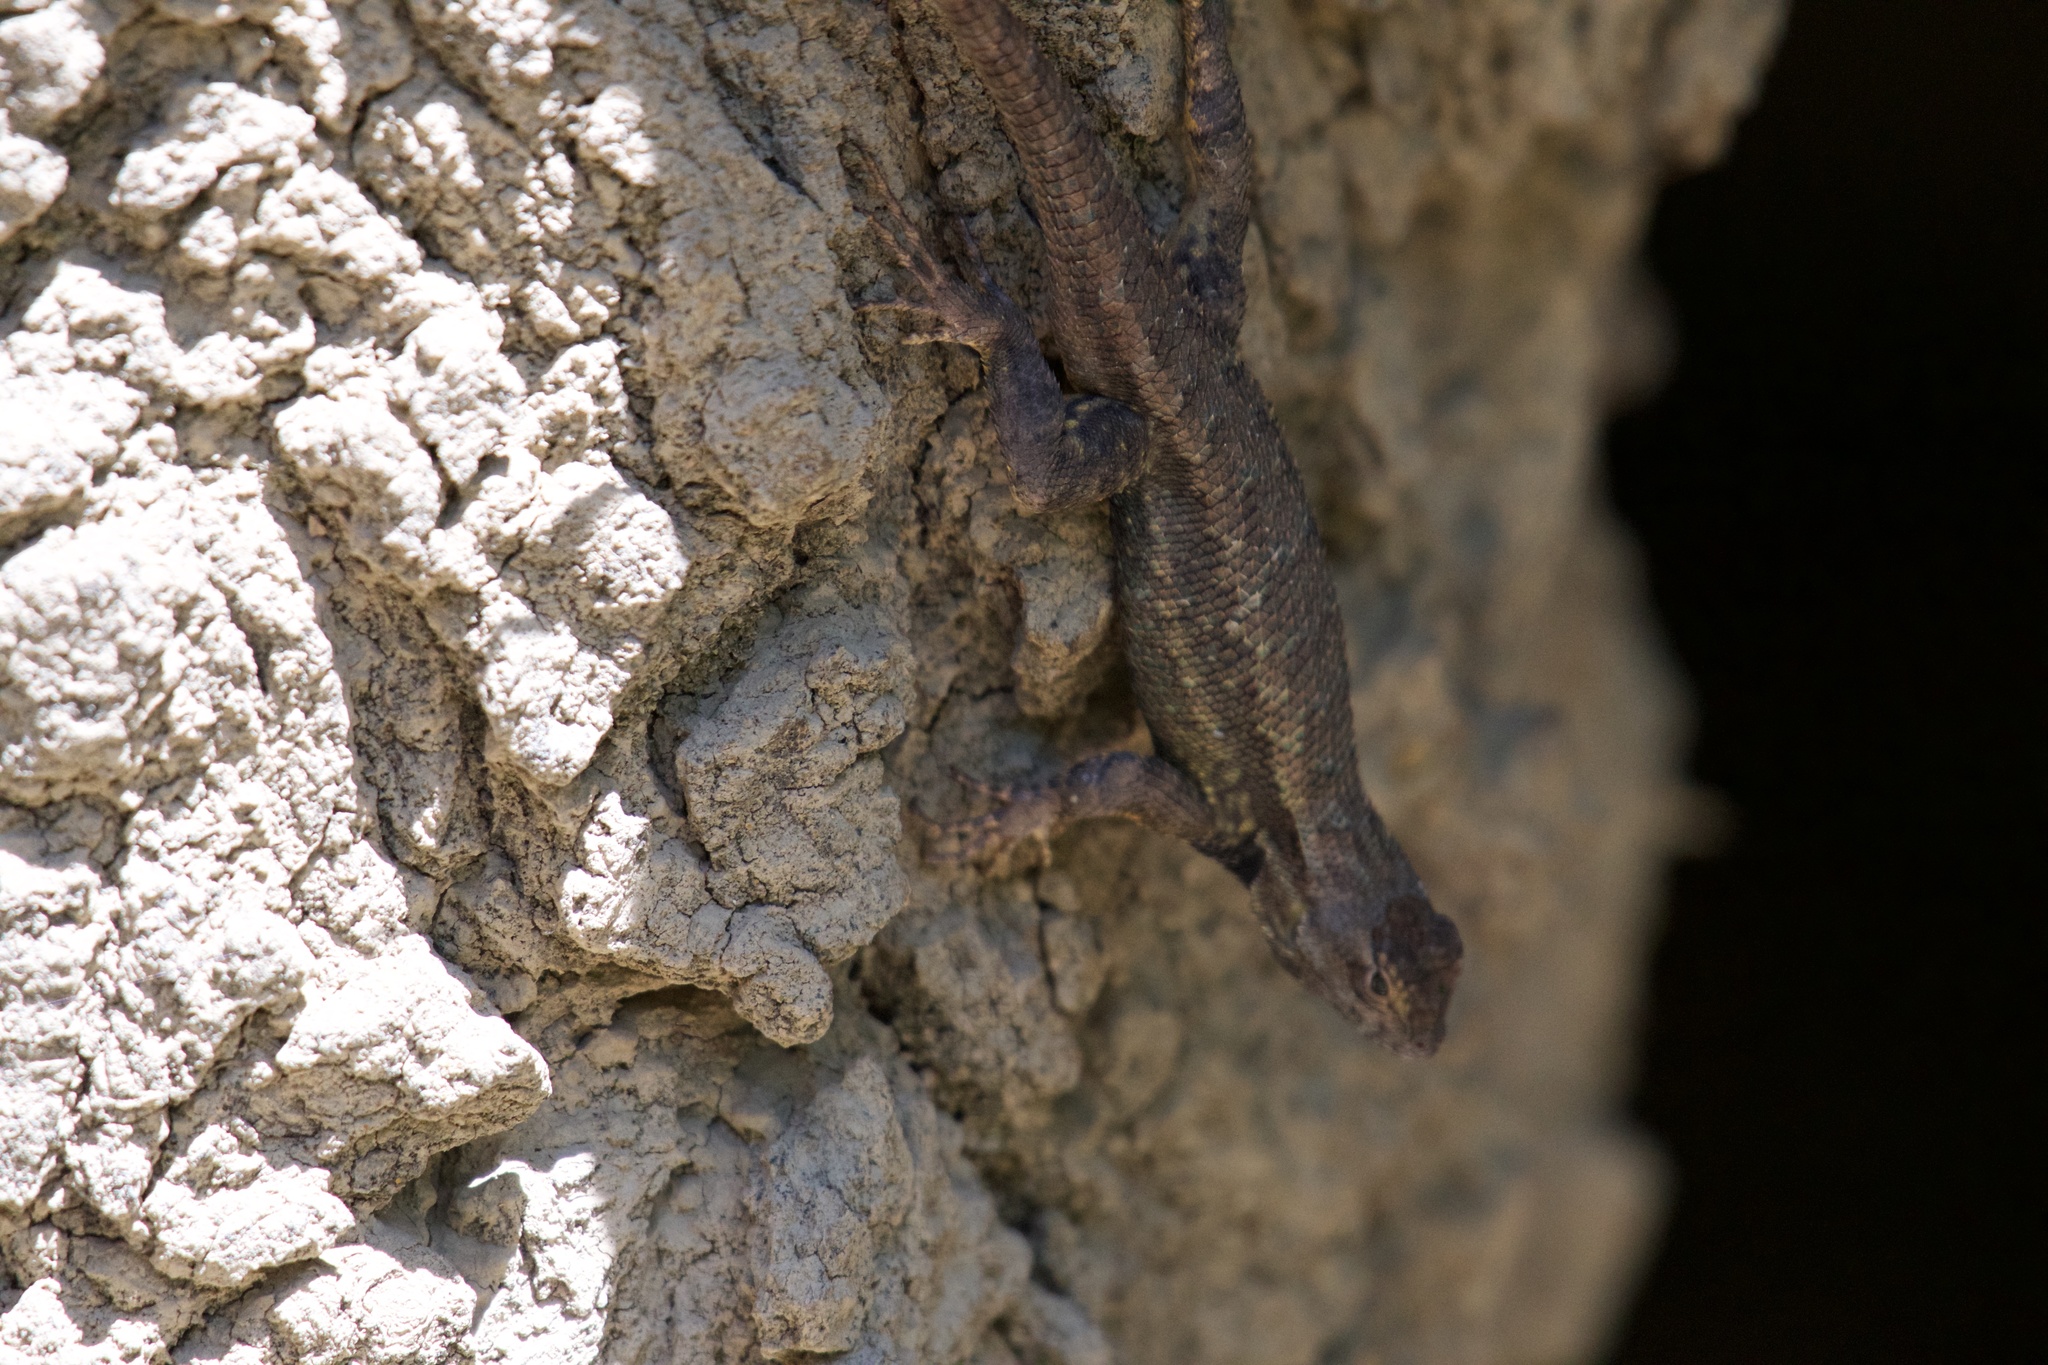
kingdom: Animalia
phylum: Chordata
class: Squamata
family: Phrynosomatidae
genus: Sceloporus
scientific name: Sceloporus occidentalis
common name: Western fence lizard
